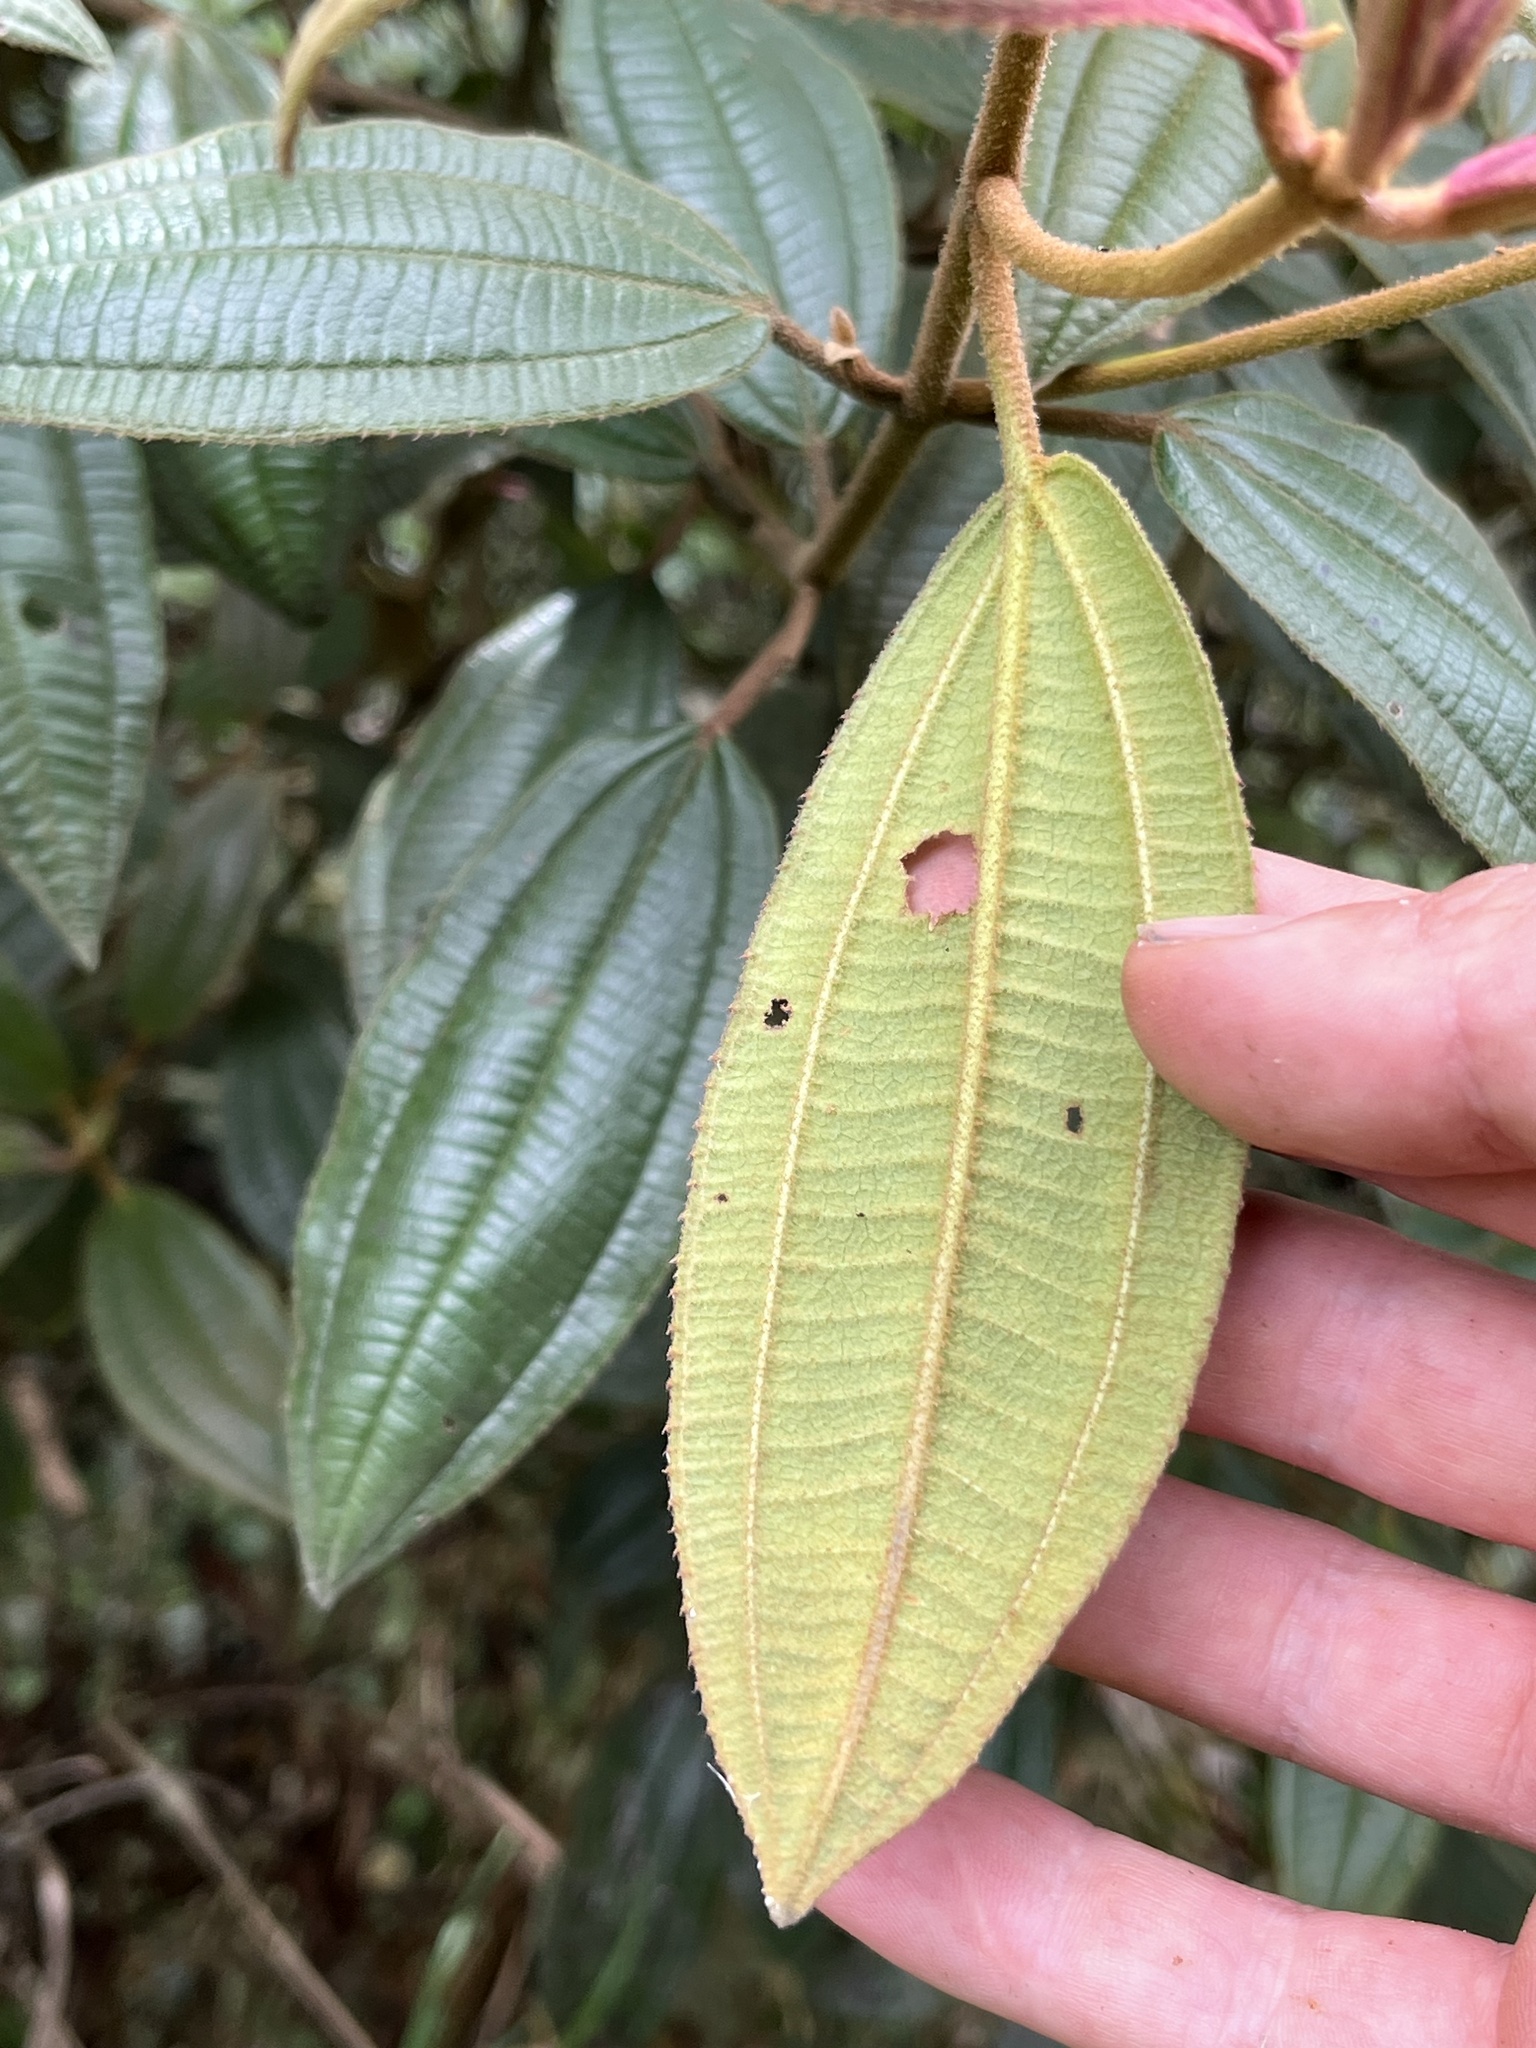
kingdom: Plantae
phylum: Tracheophyta
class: Magnoliopsida
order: Myrtales
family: Melastomataceae
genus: Miconia
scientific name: Miconia cataractae
